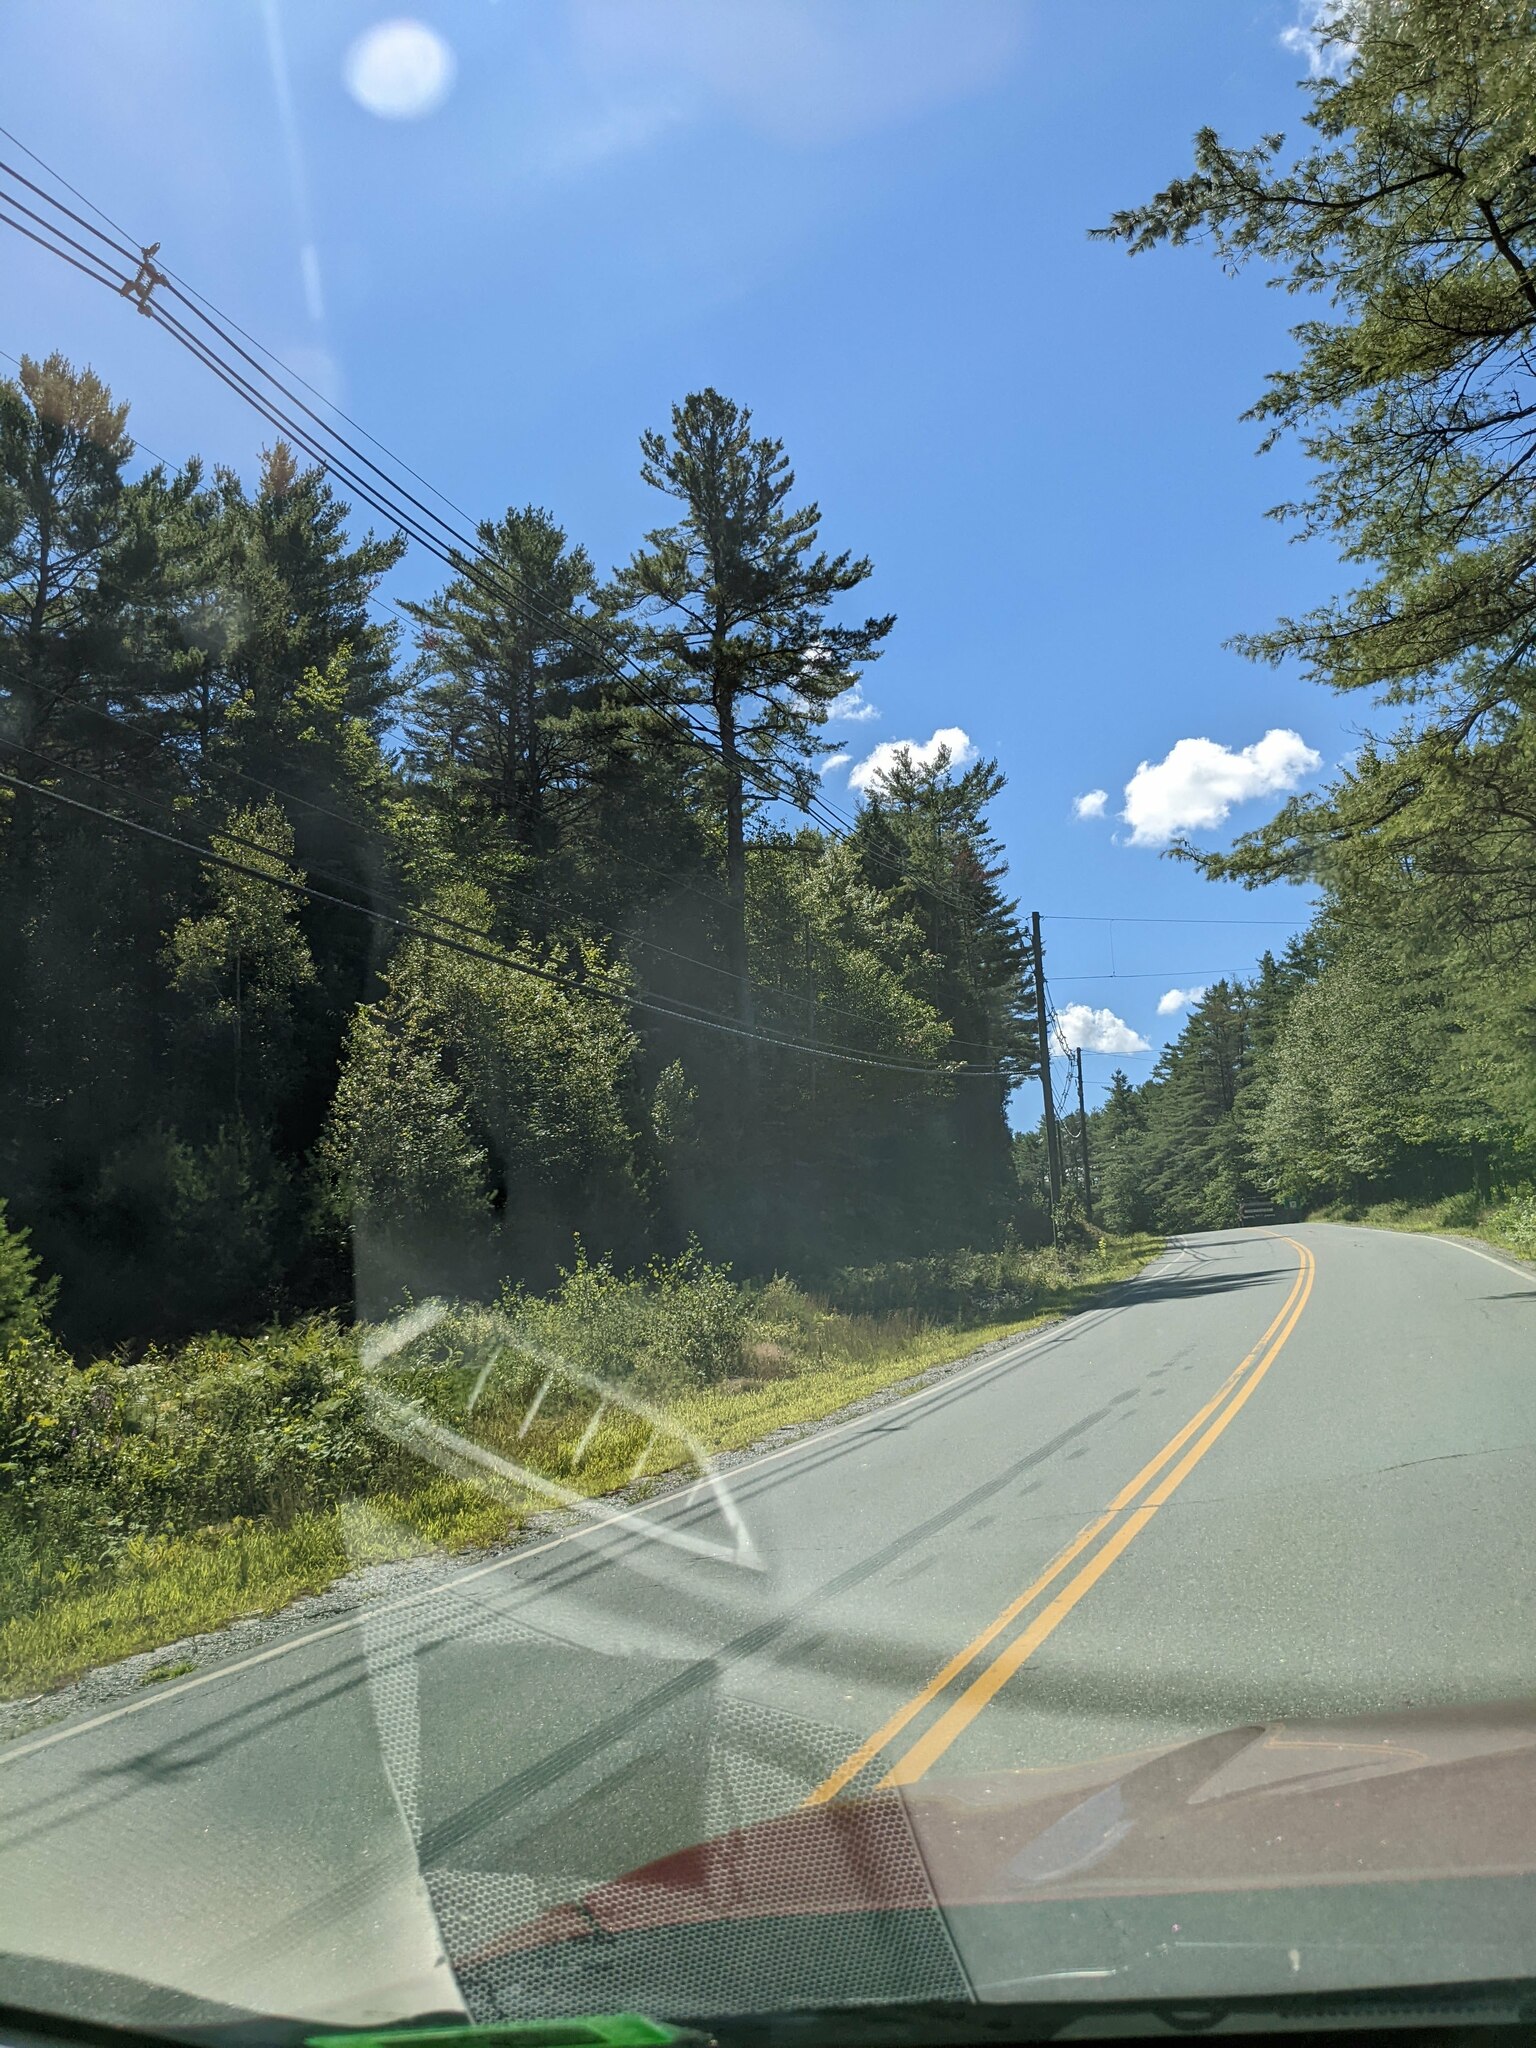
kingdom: Plantae
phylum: Tracheophyta
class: Pinopsida
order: Pinales
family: Pinaceae
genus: Pinus
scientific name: Pinus strobus
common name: Weymouth pine
